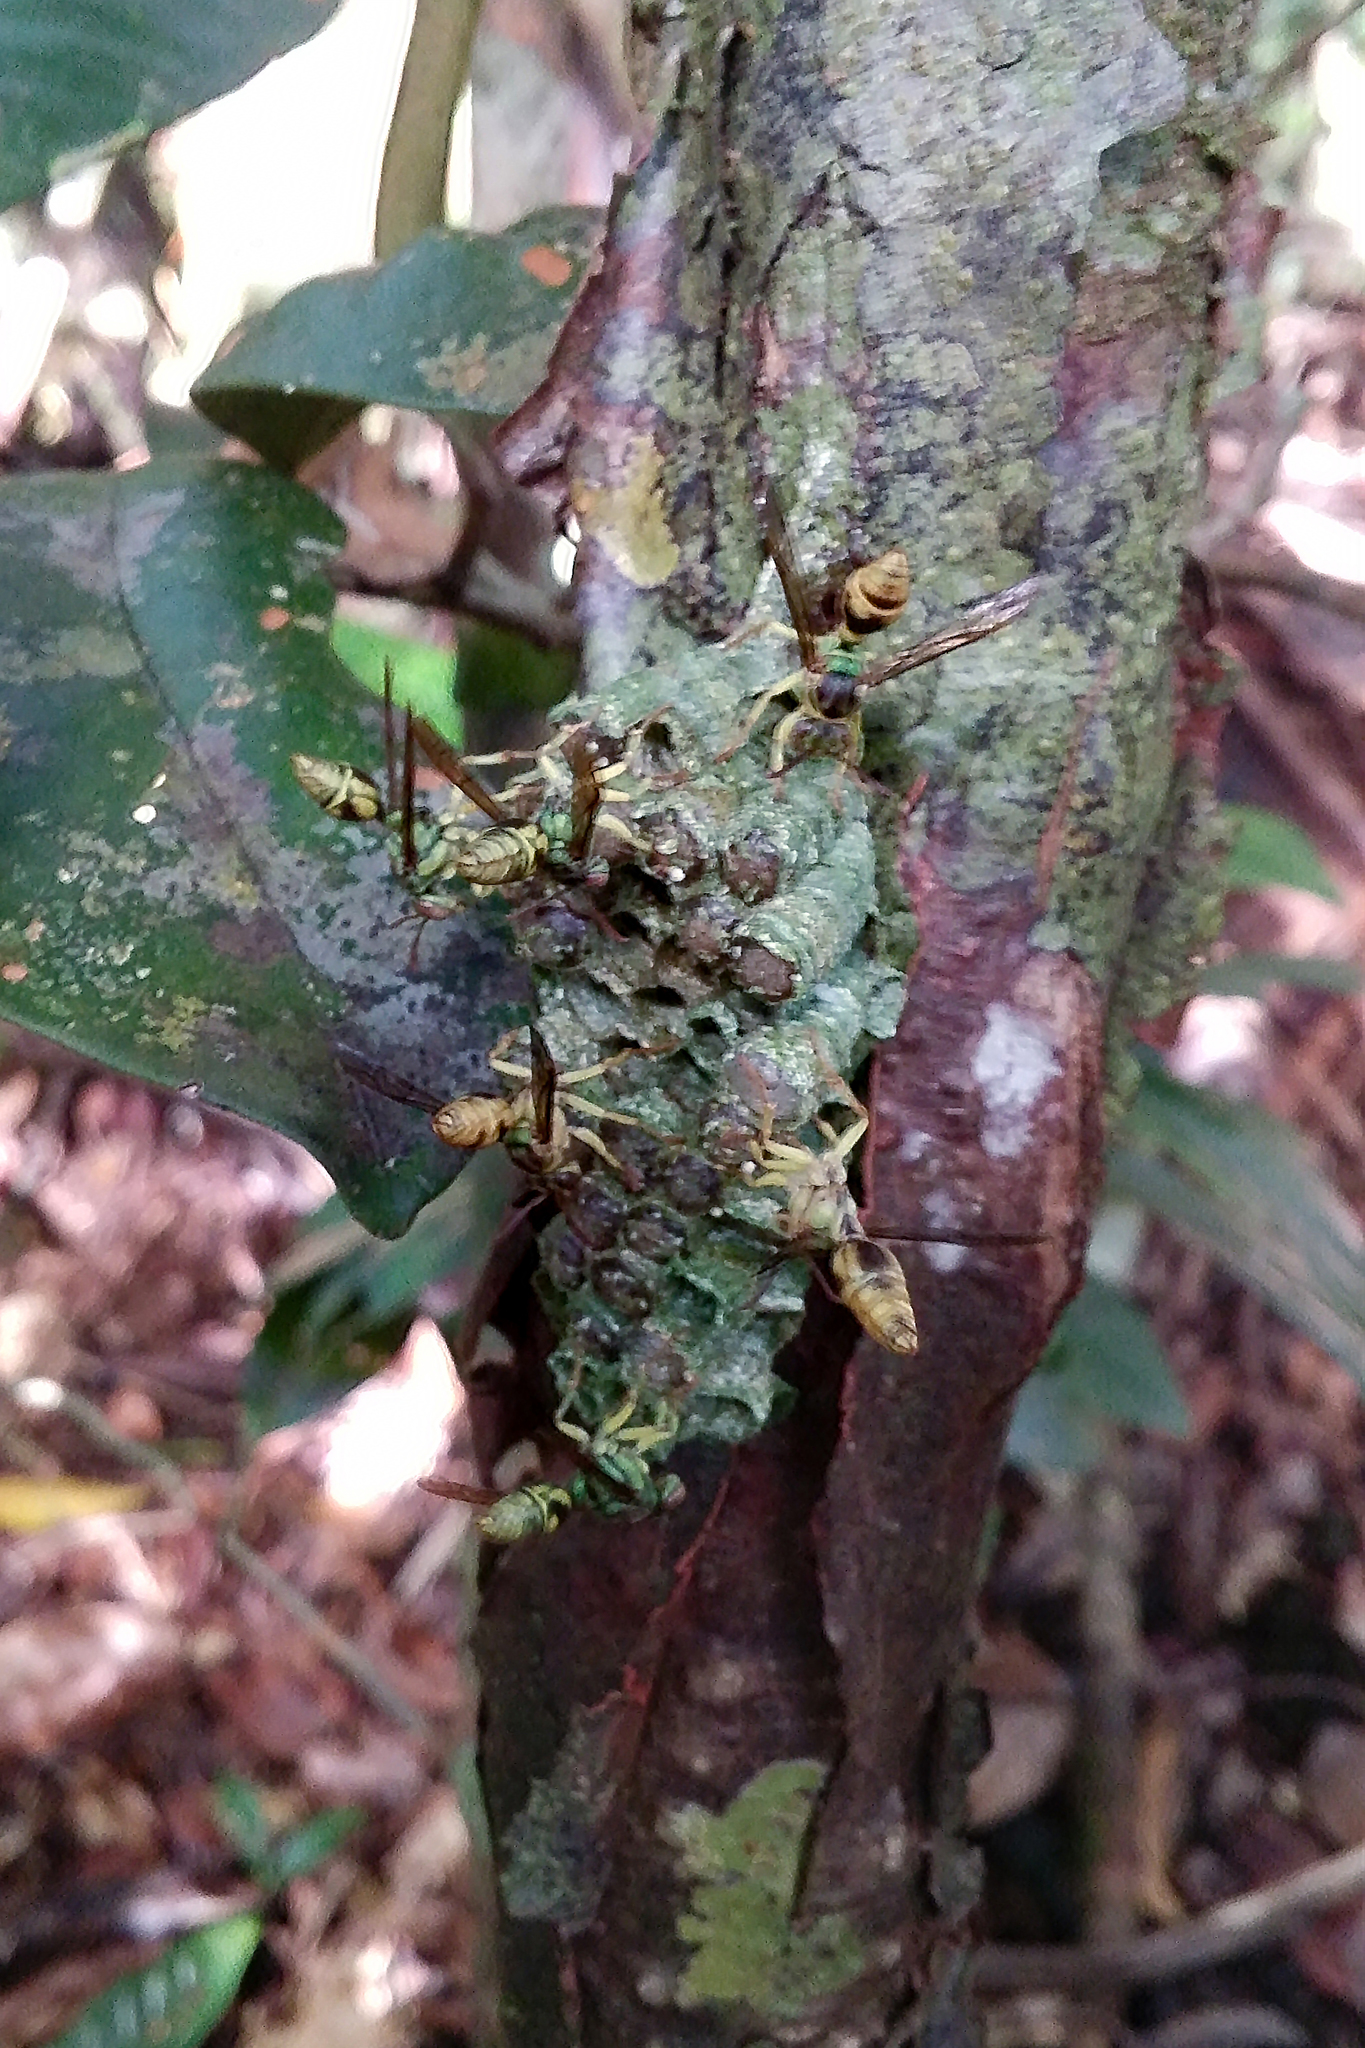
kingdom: Animalia
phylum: Arthropoda
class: Insecta
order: Hymenoptera
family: Vespidae
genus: Ropalidia
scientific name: Ropalidia saussurei
